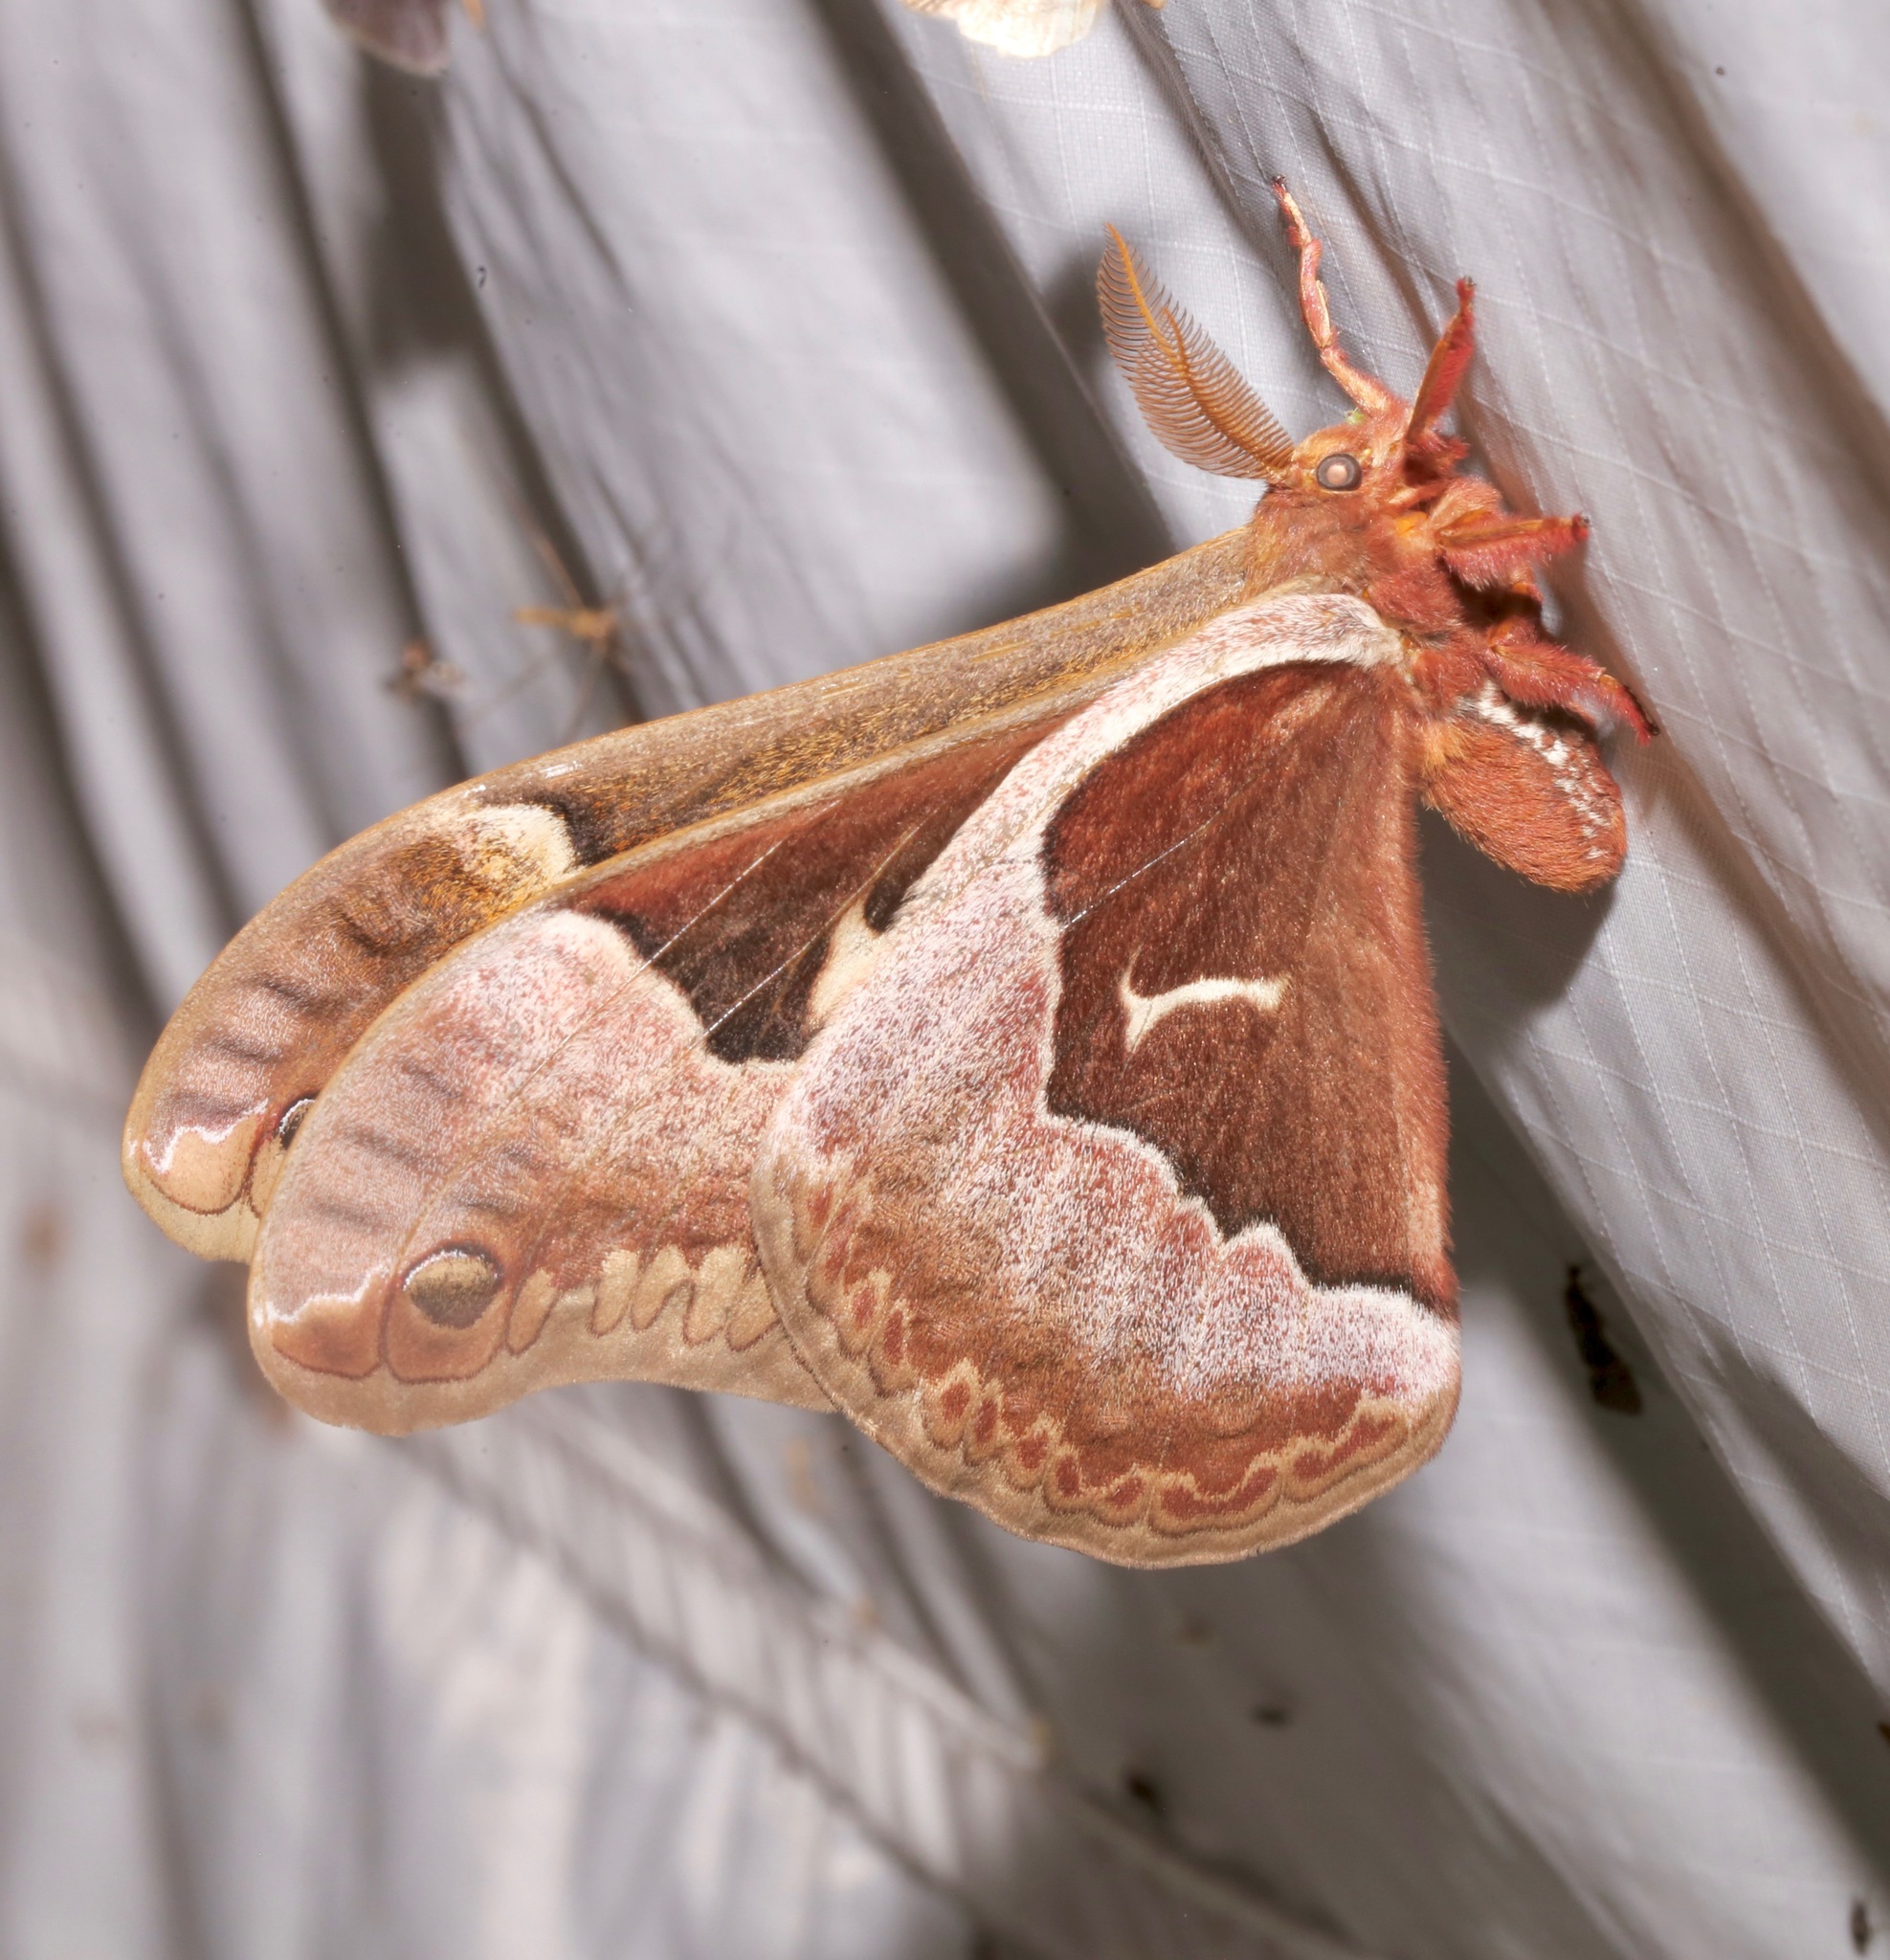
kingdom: Animalia
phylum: Arthropoda
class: Insecta
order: Lepidoptera
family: Saturniidae
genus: Callosamia
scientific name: Callosamia angulifera
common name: Tulip tree silkmoth
